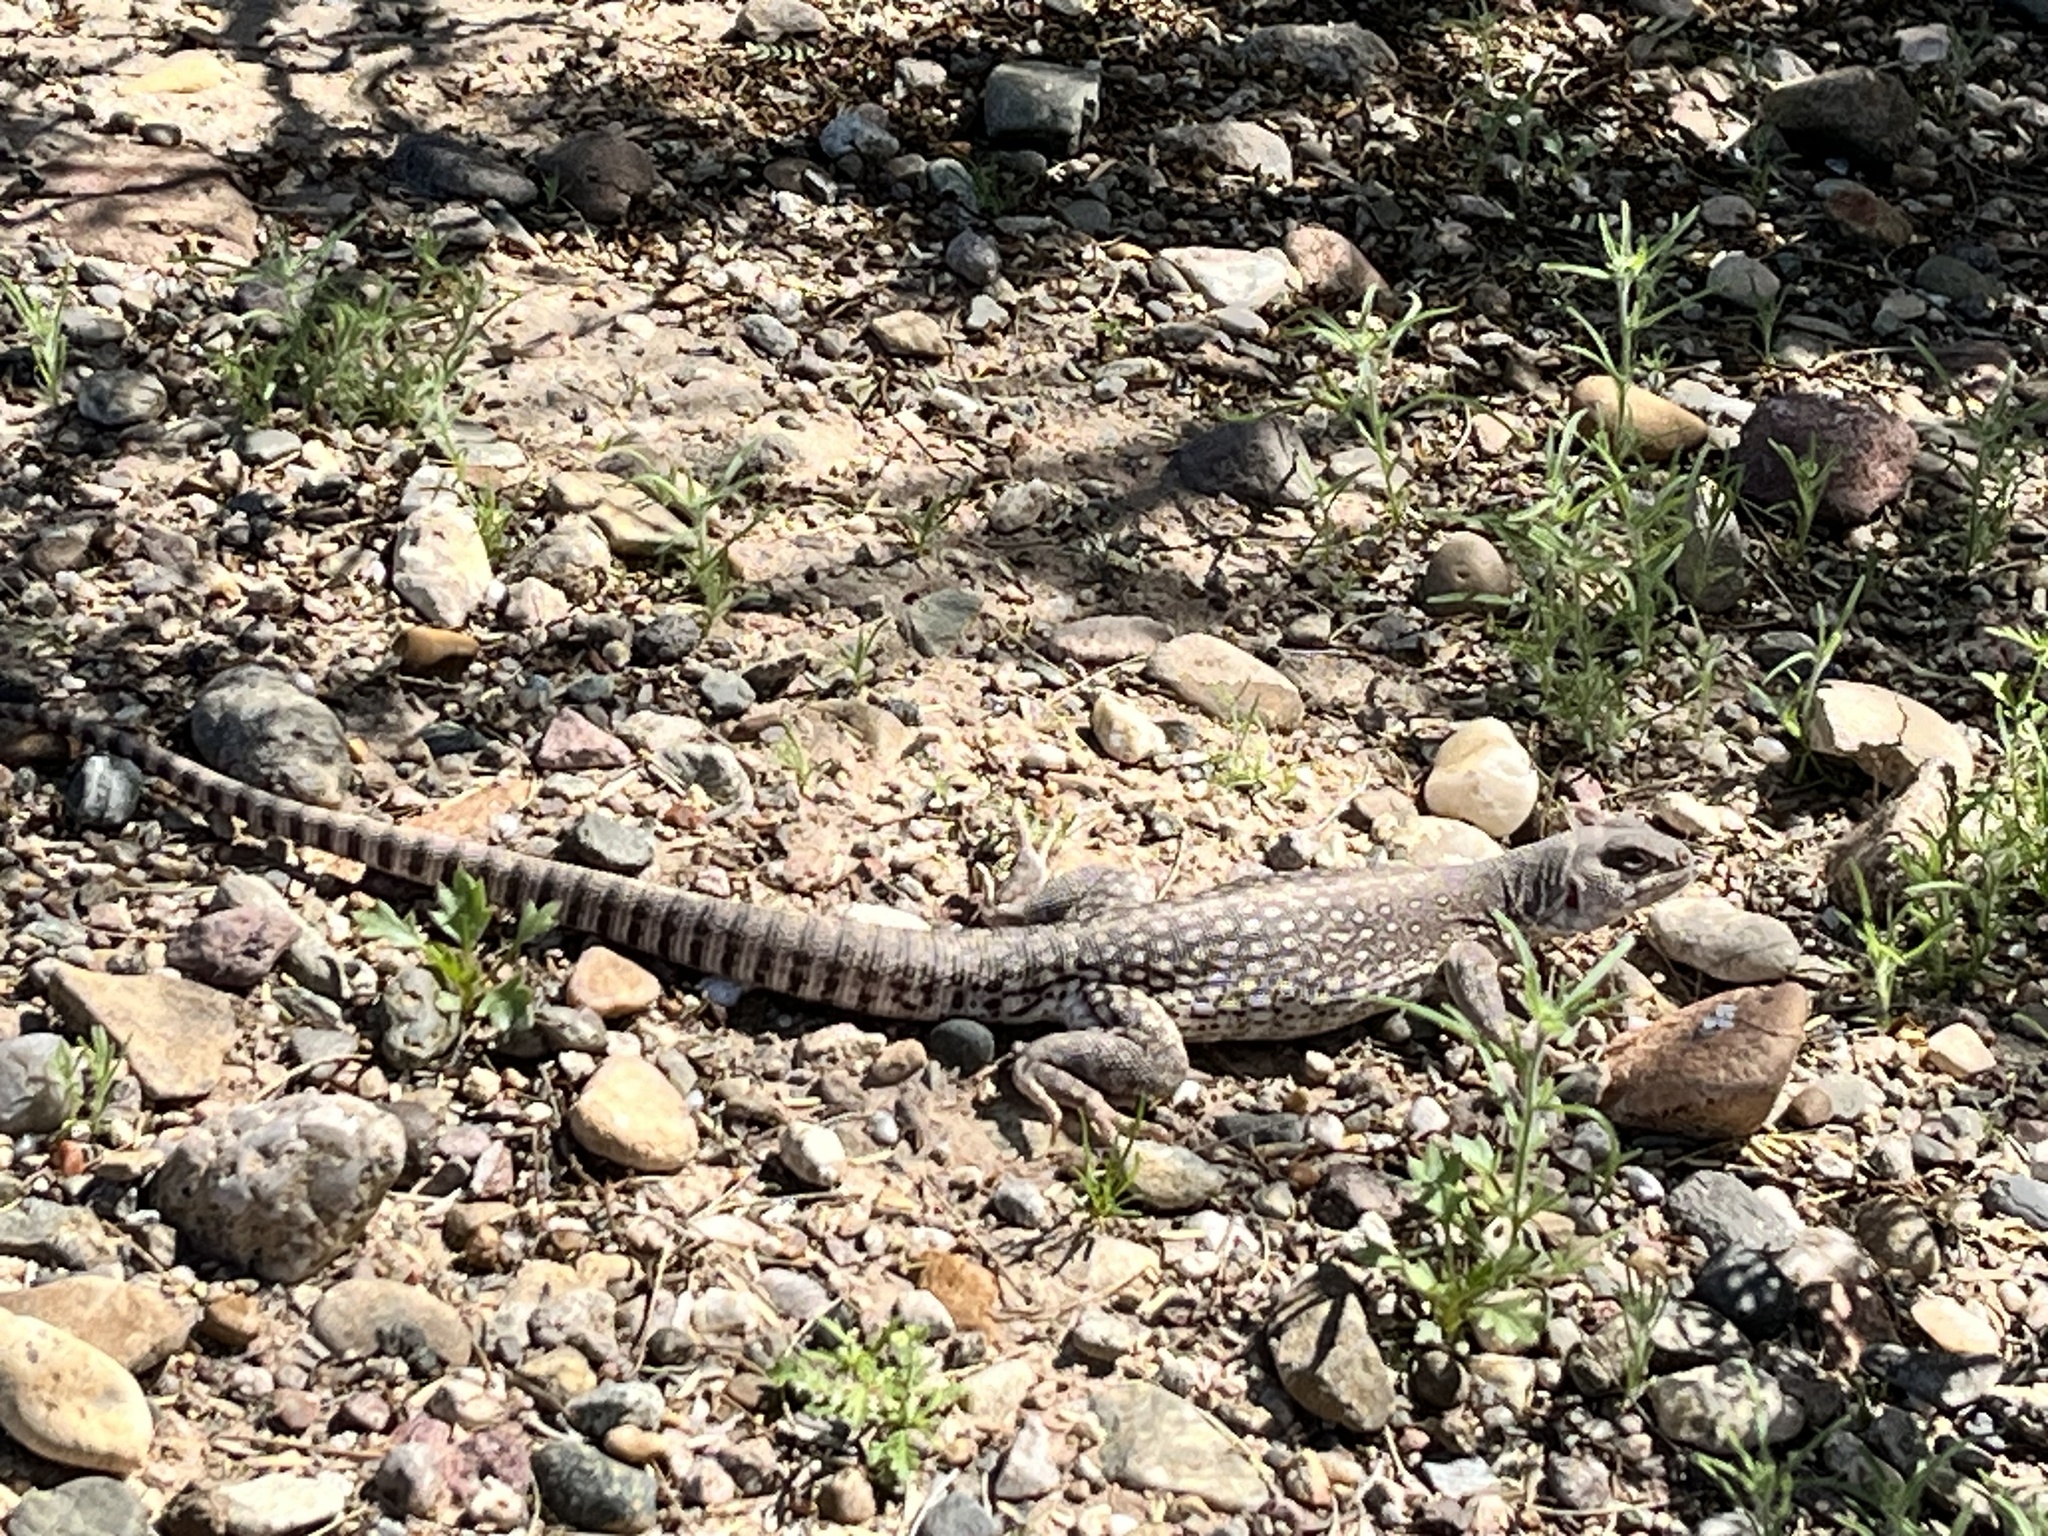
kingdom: Animalia
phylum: Chordata
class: Squamata
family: Iguanidae
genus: Dipsosaurus
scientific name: Dipsosaurus dorsalis
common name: Desert iguana
